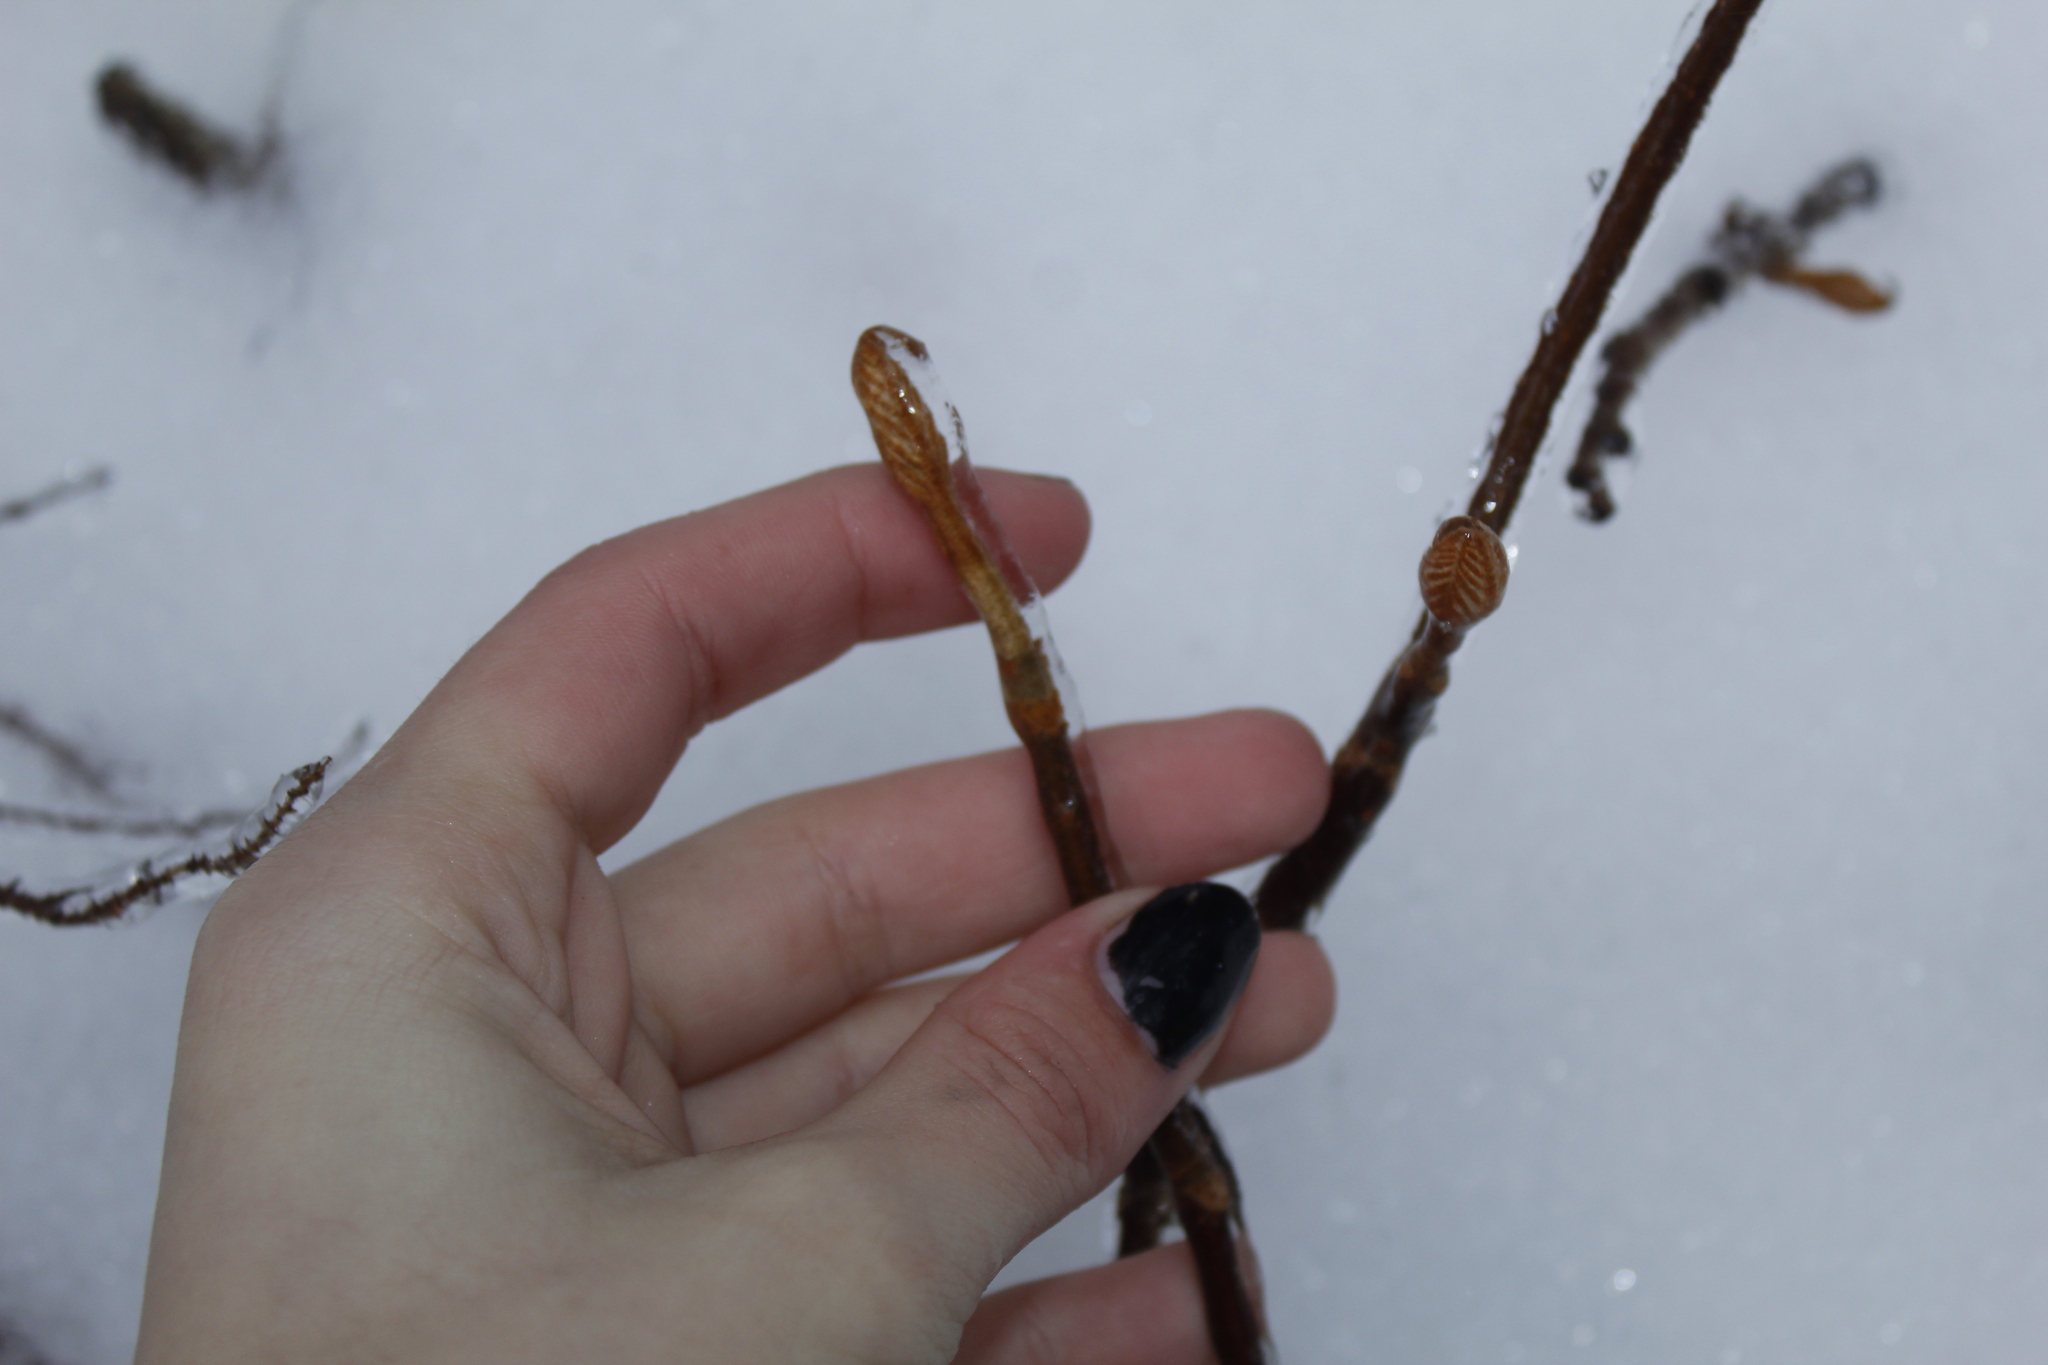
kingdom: Plantae
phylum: Tracheophyta
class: Magnoliopsida
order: Dipsacales
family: Viburnaceae
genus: Viburnum
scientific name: Viburnum lantanoides
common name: Hobblebush
